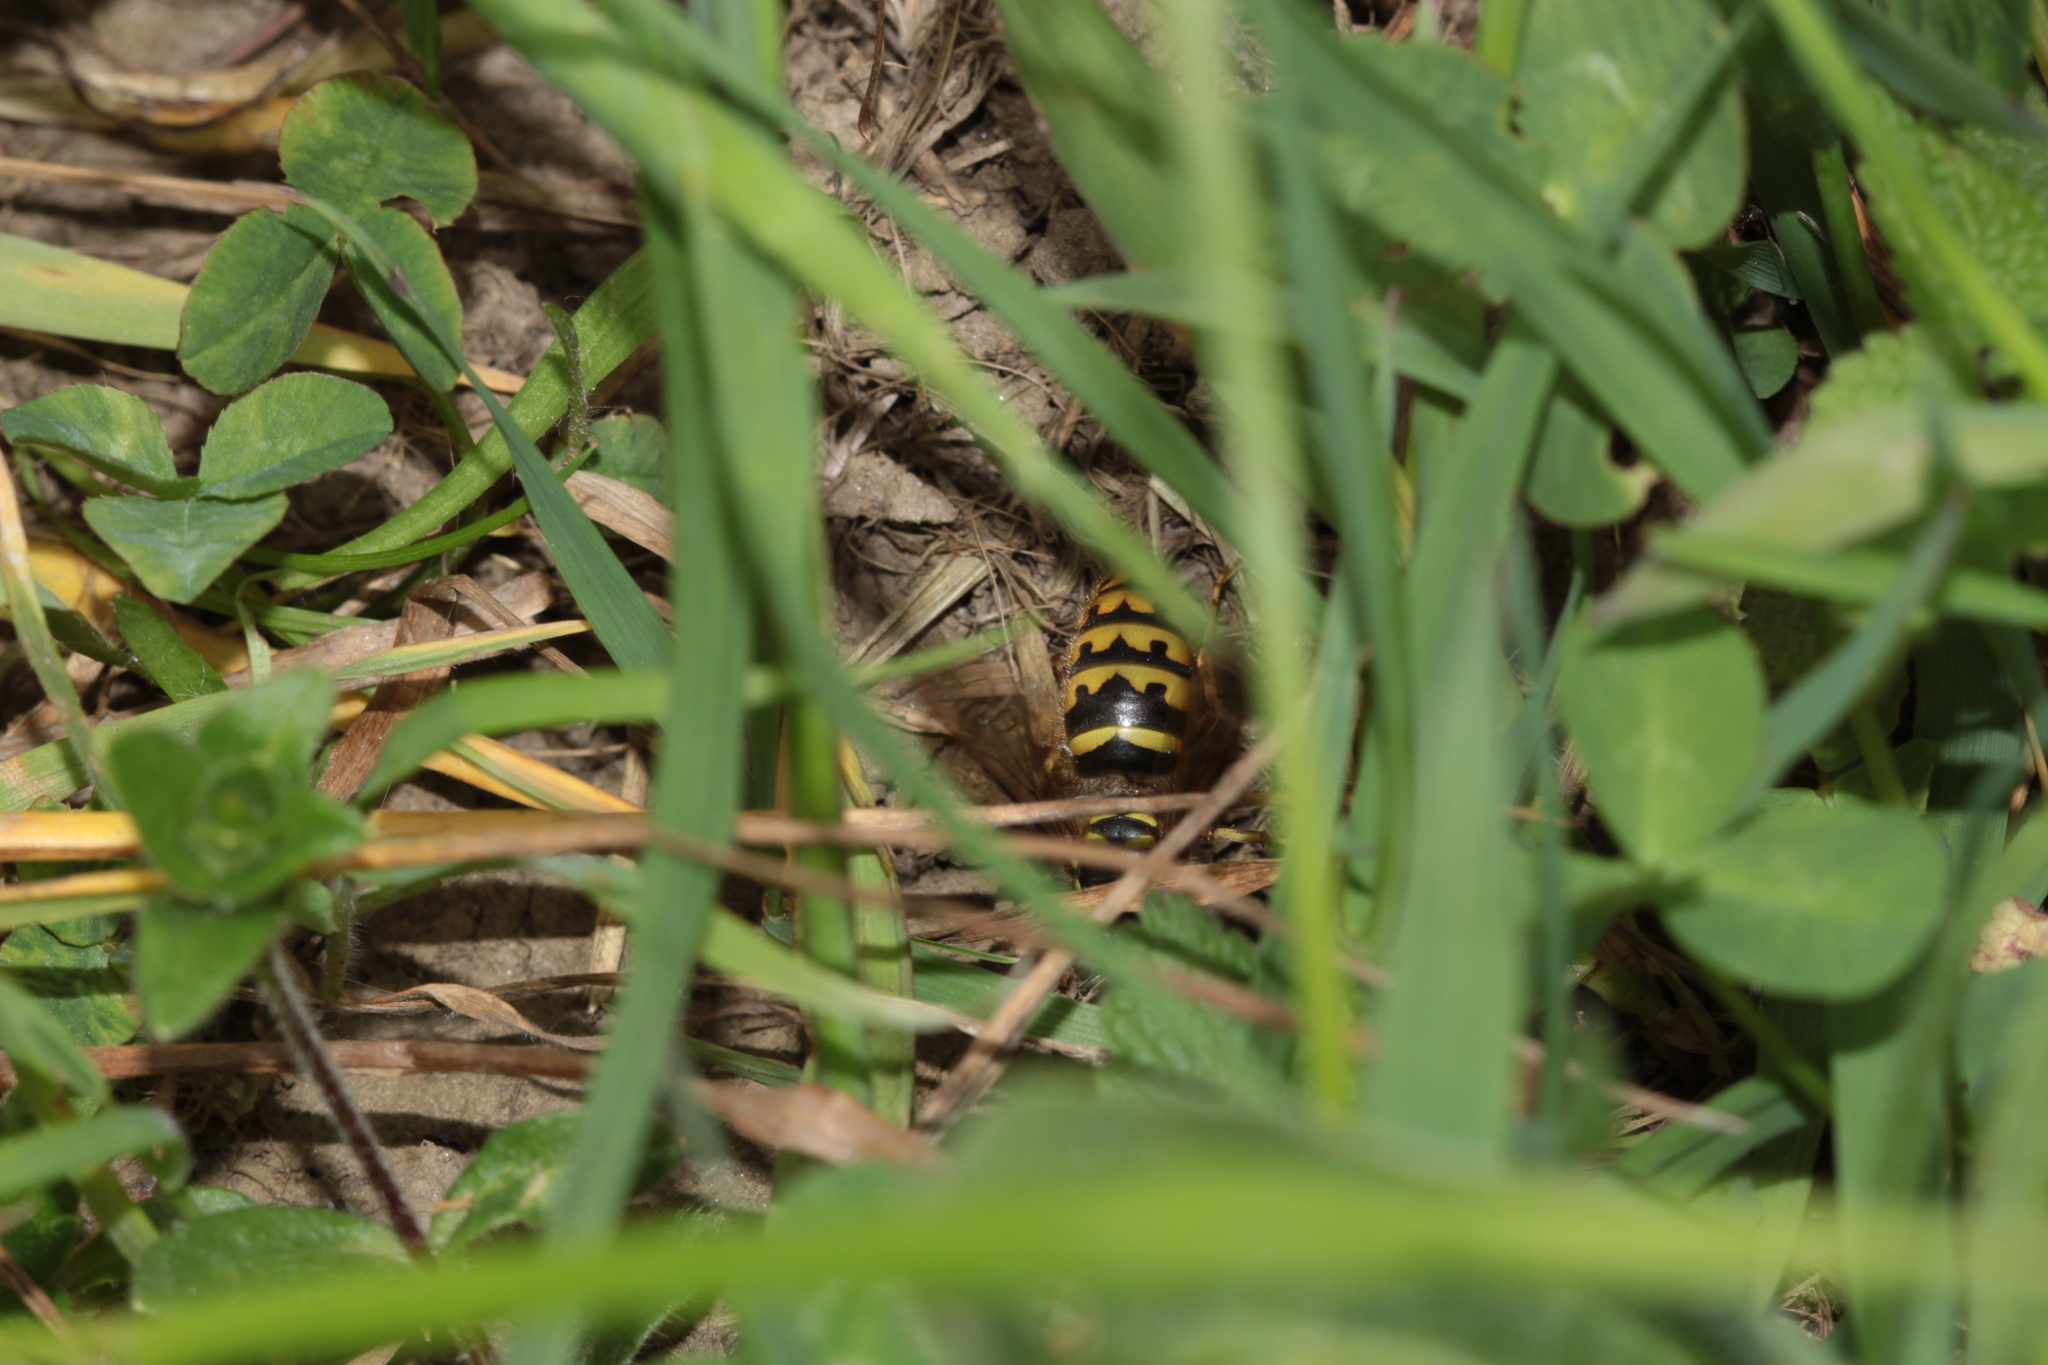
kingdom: Animalia
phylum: Arthropoda
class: Insecta
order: Hymenoptera
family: Vespidae
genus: Vespula
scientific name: Vespula vulgaris
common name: Common wasp
